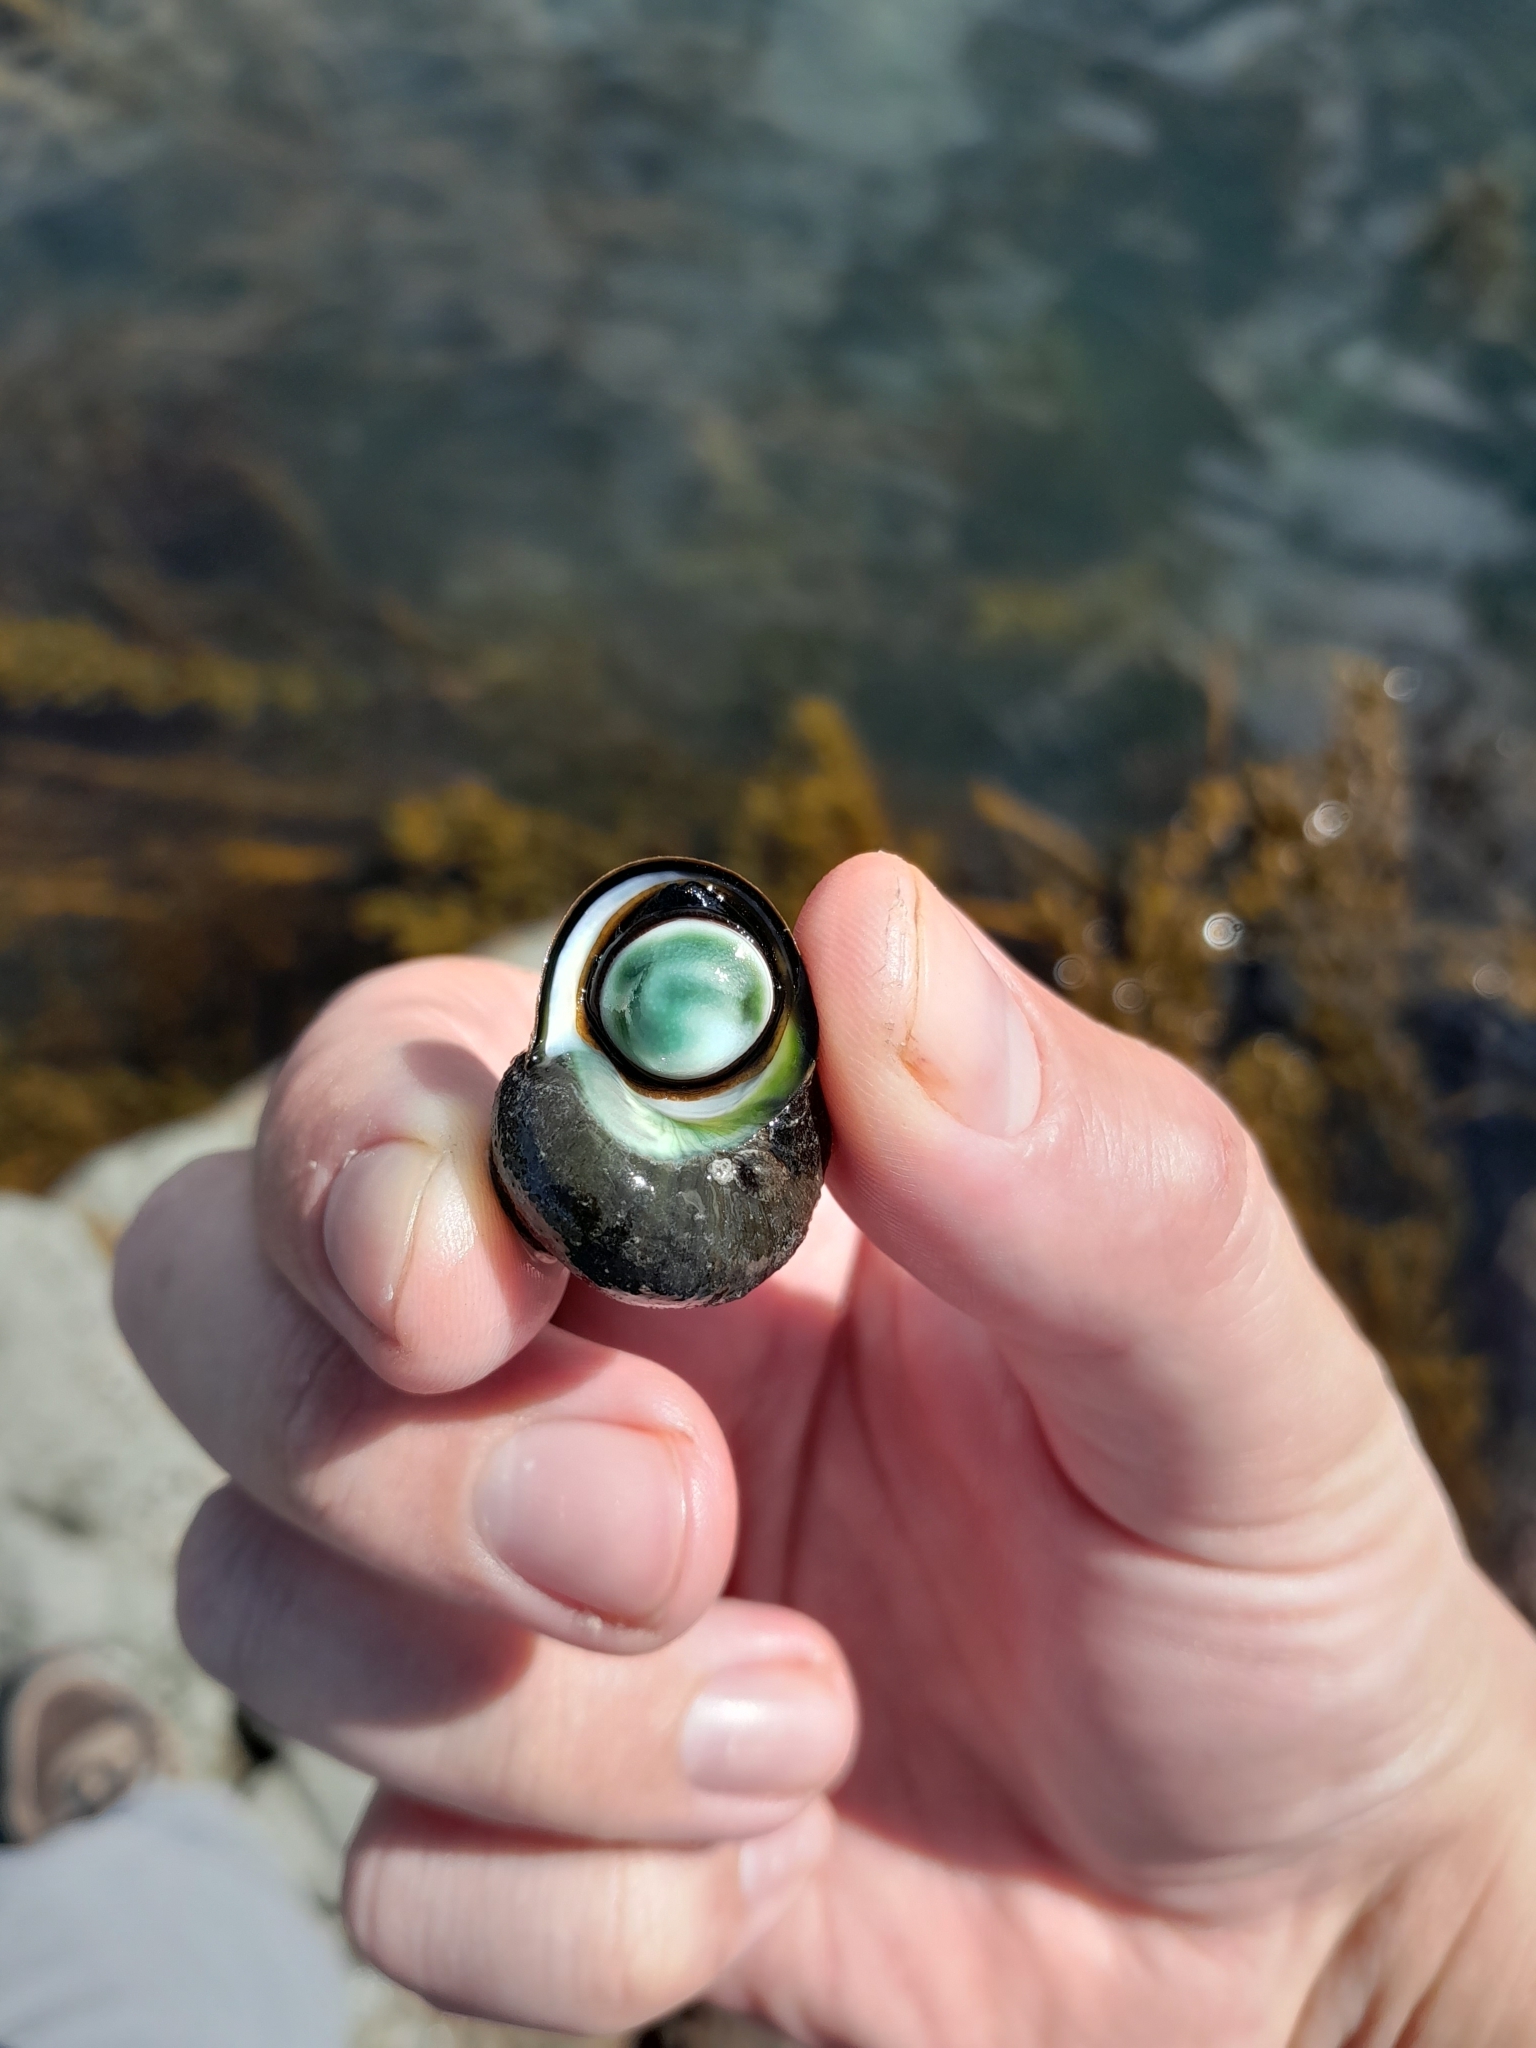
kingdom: Animalia
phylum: Mollusca
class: Gastropoda
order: Trochida
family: Turbinidae
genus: Lunella
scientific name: Lunella smaragda
